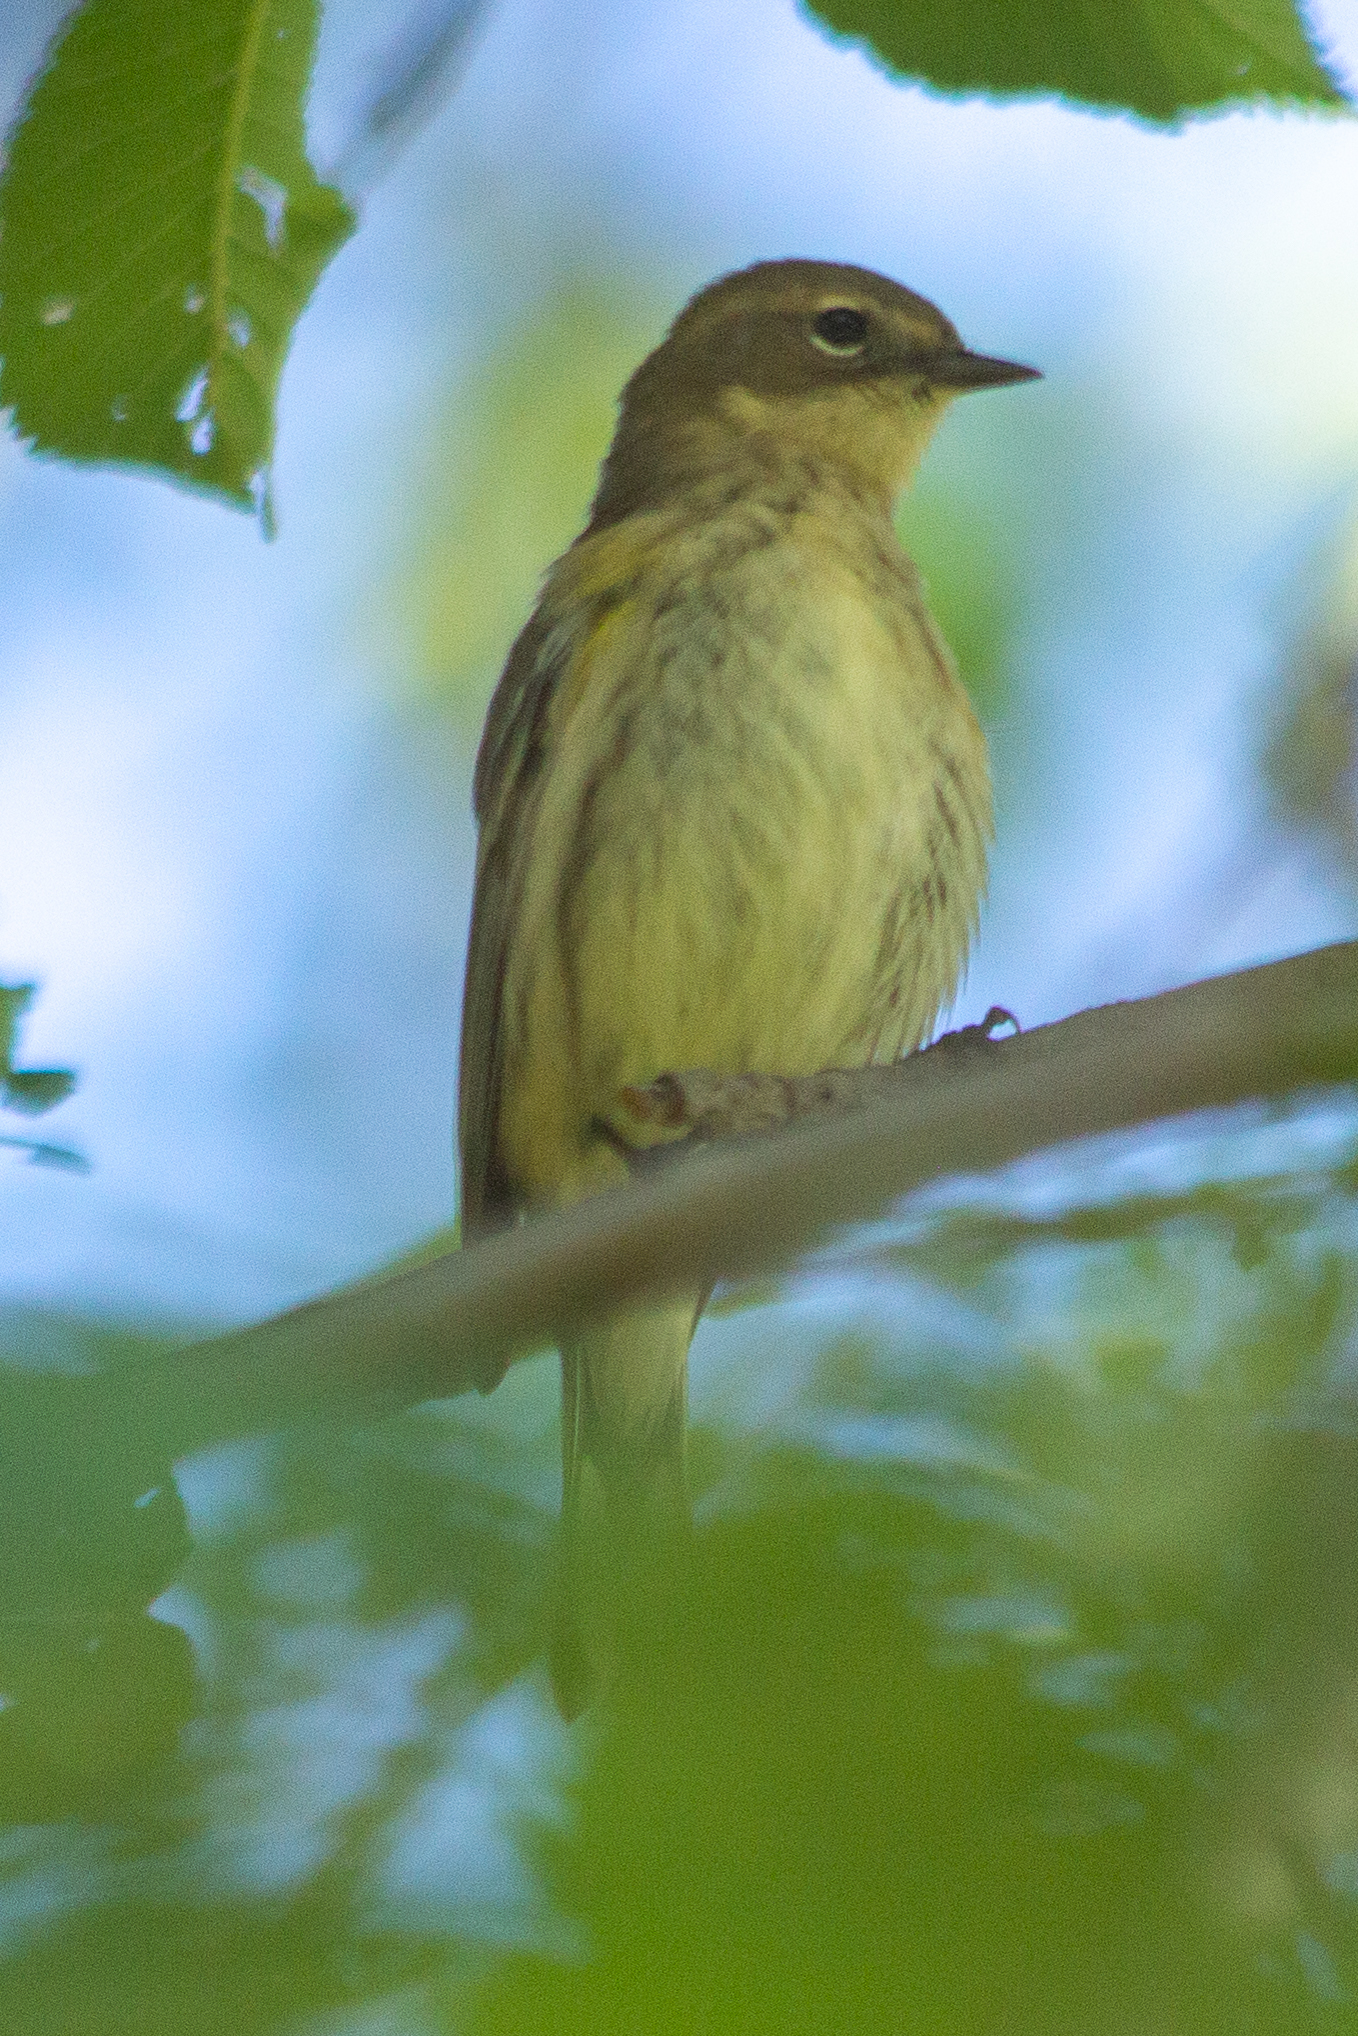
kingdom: Animalia
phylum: Chordata
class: Aves
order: Passeriformes
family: Parulidae
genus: Setophaga
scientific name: Setophaga coronata
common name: Myrtle warbler
